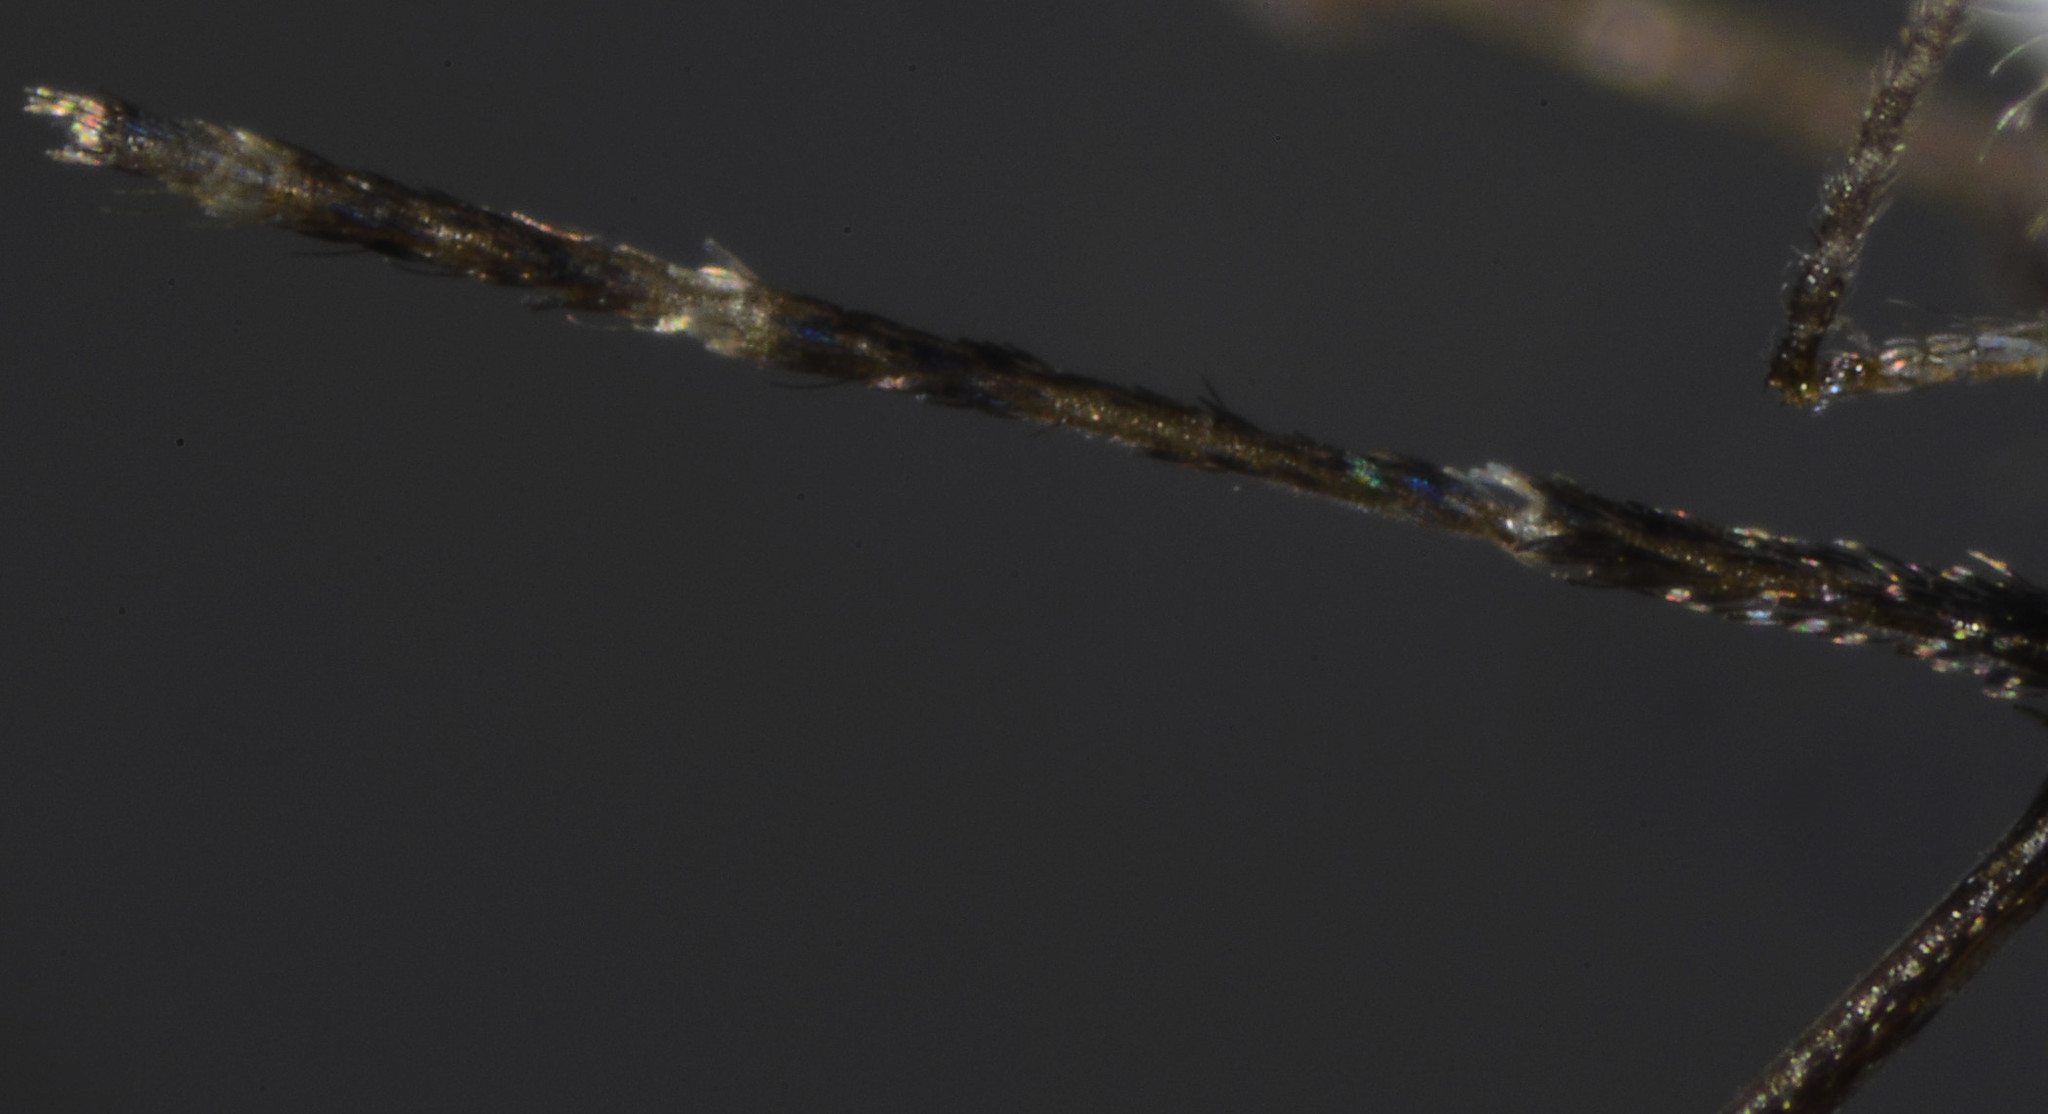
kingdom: Animalia
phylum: Arthropoda
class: Insecta
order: Diptera
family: Culicidae
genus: Anopheles
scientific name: Anopheles franciscanus
